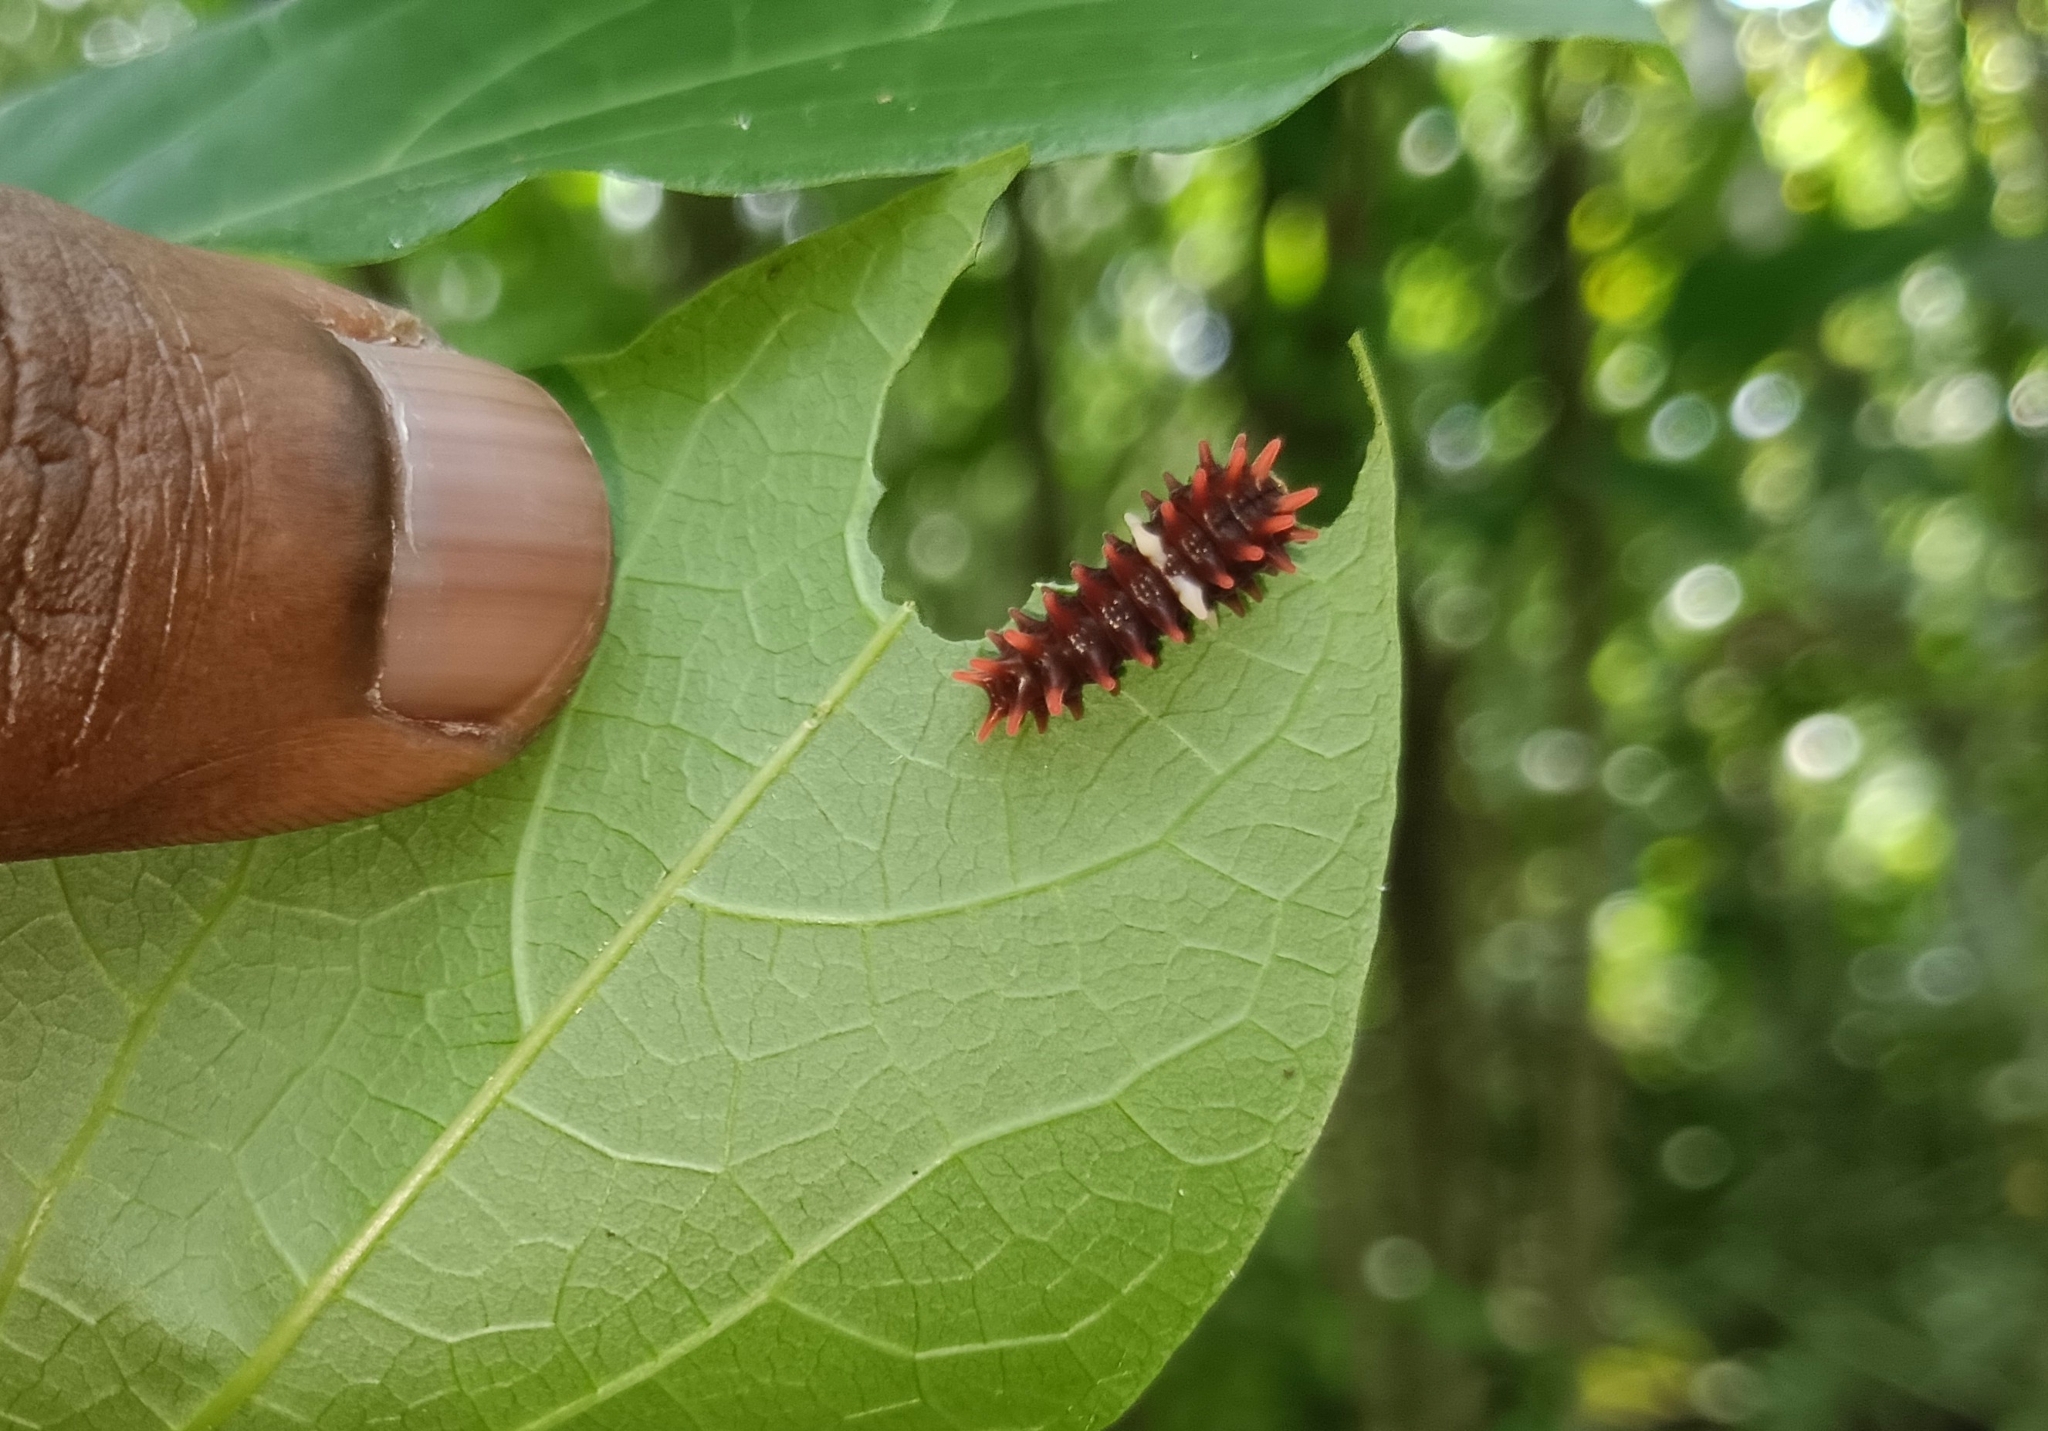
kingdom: Animalia
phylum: Arthropoda
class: Insecta
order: Lepidoptera
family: Papilionidae
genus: Pachliopta
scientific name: Pachliopta aristolochiae
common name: Common rose
